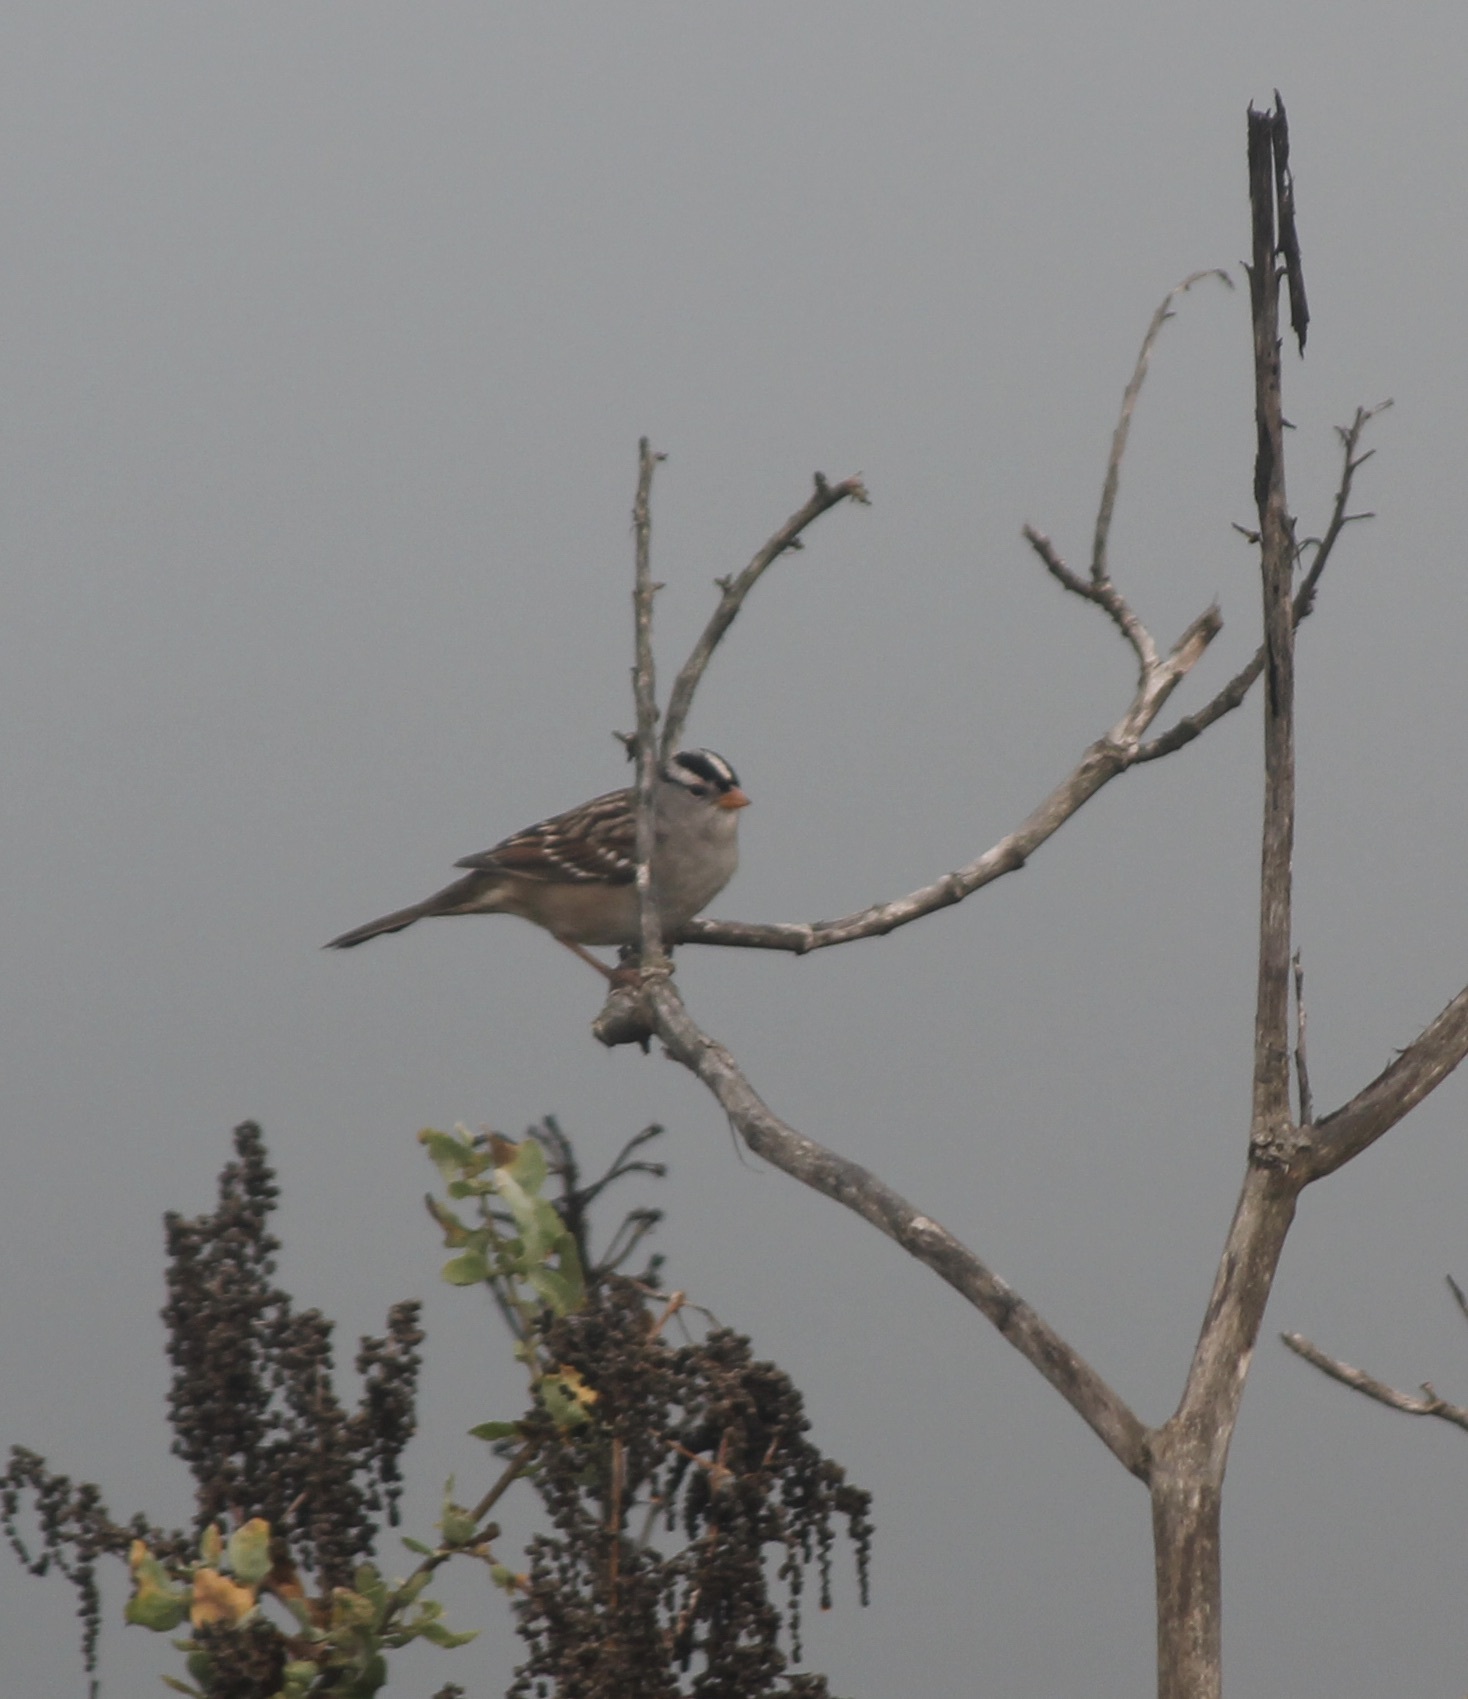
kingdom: Animalia
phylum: Chordata
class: Aves
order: Passeriformes
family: Passerellidae
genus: Zonotrichia
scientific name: Zonotrichia leucophrys
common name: White-crowned sparrow
